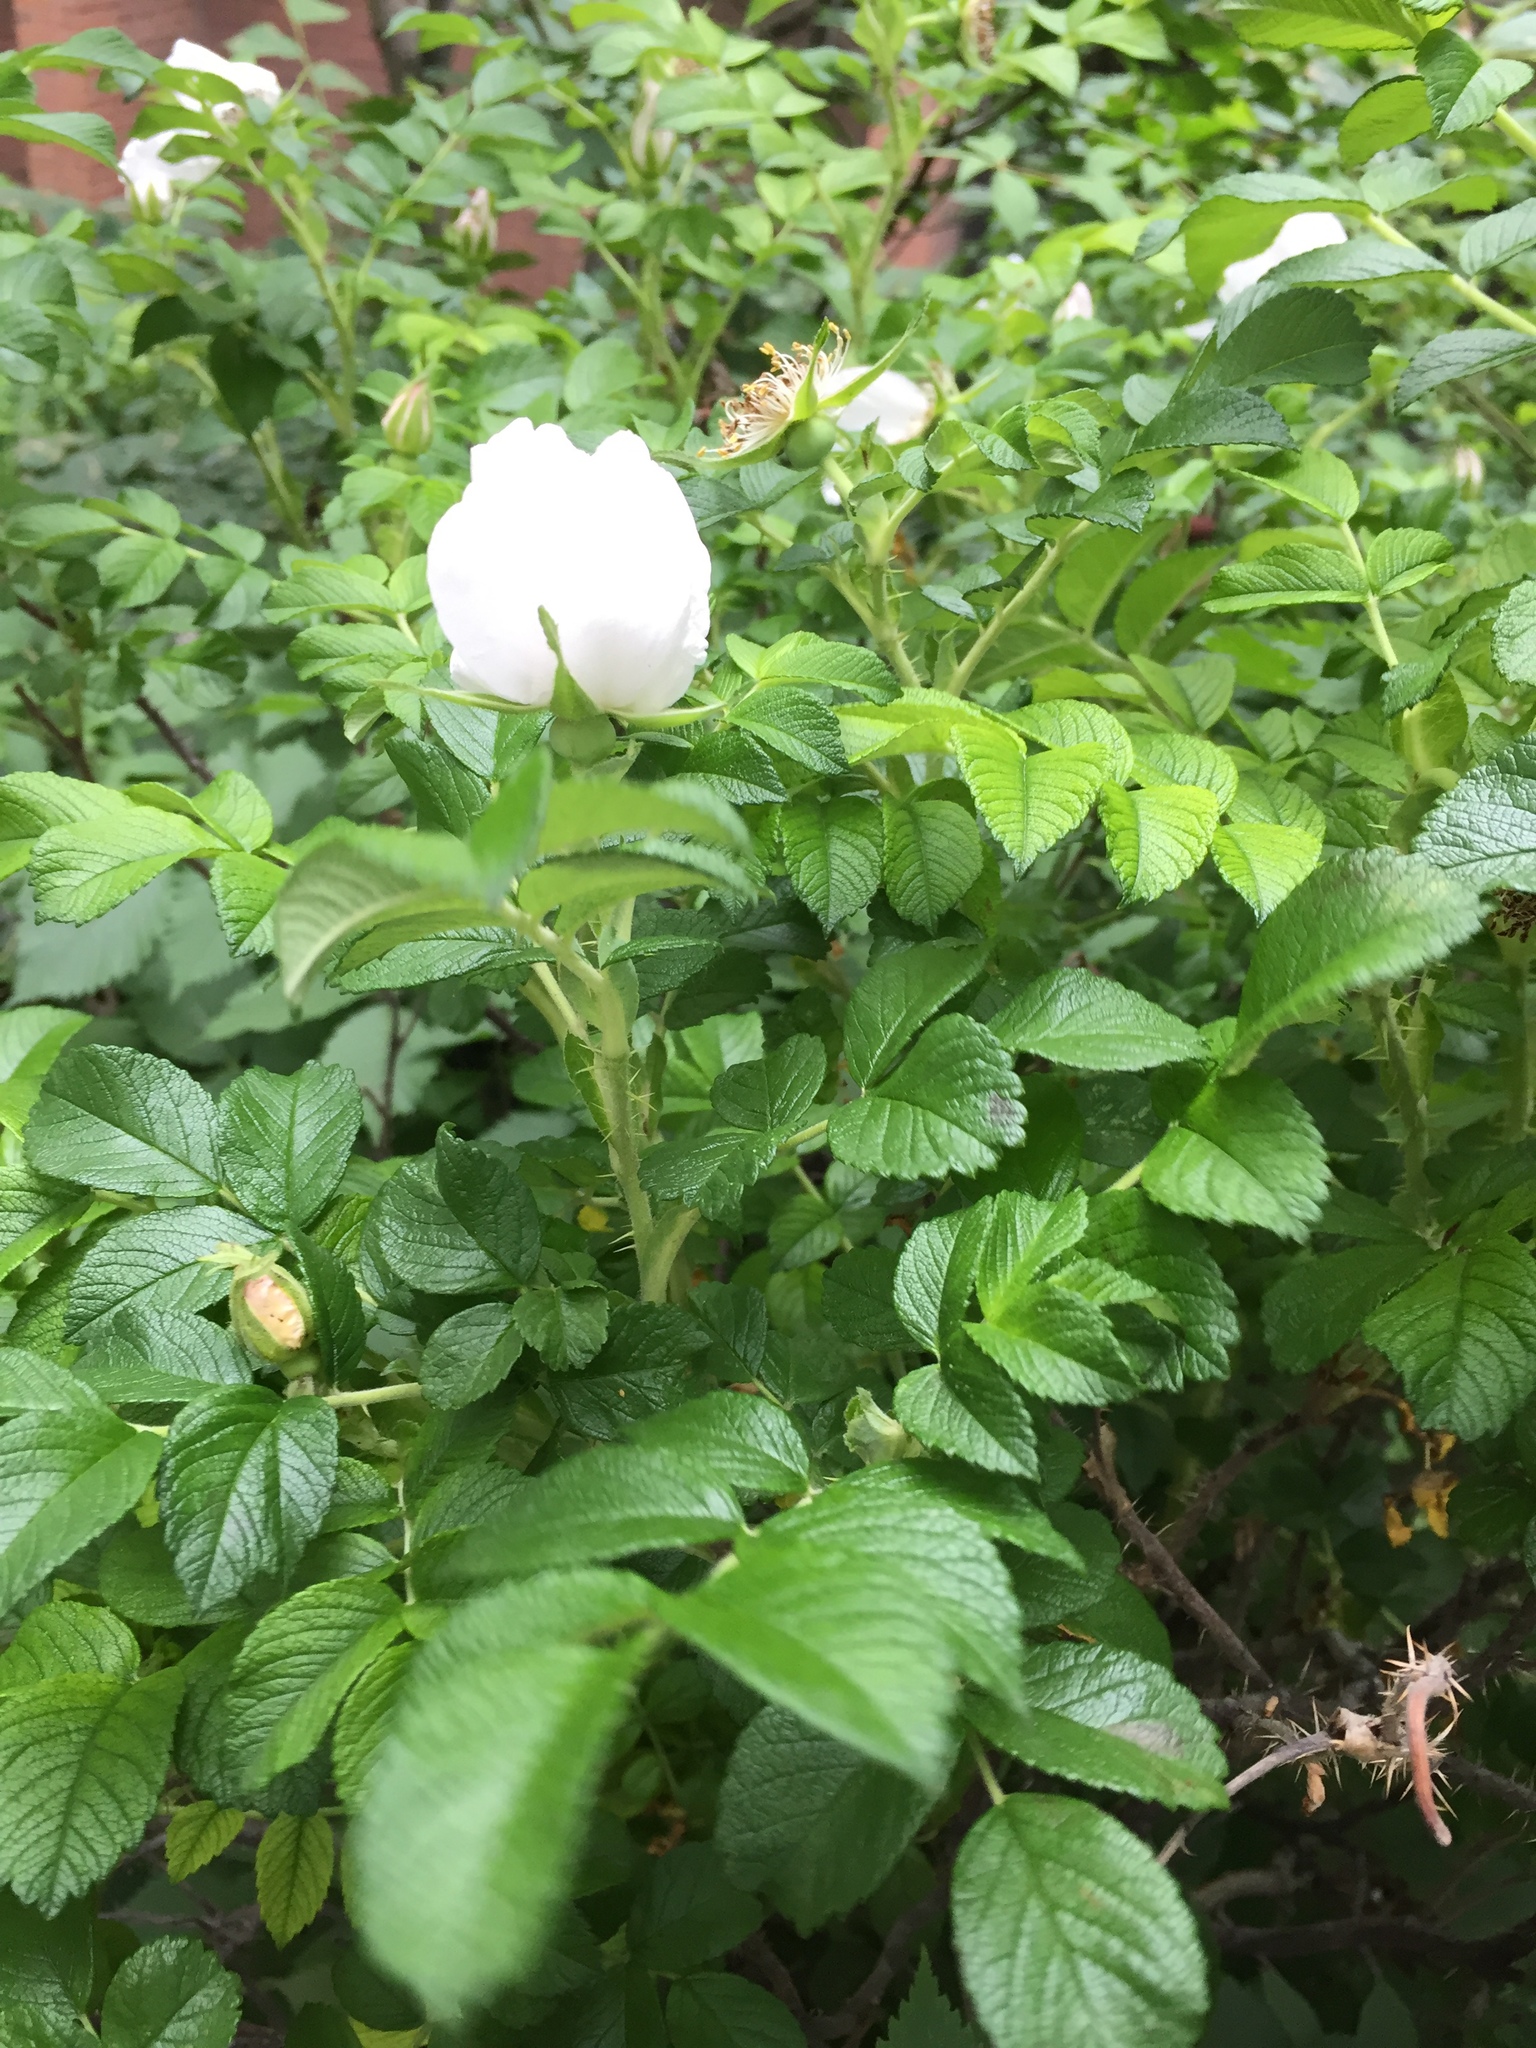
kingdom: Plantae
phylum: Tracheophyta
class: Magnoliopsida
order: Rosales
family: Rosaceae
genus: Rosa
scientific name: Rosa rugosa
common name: Japanese rose
